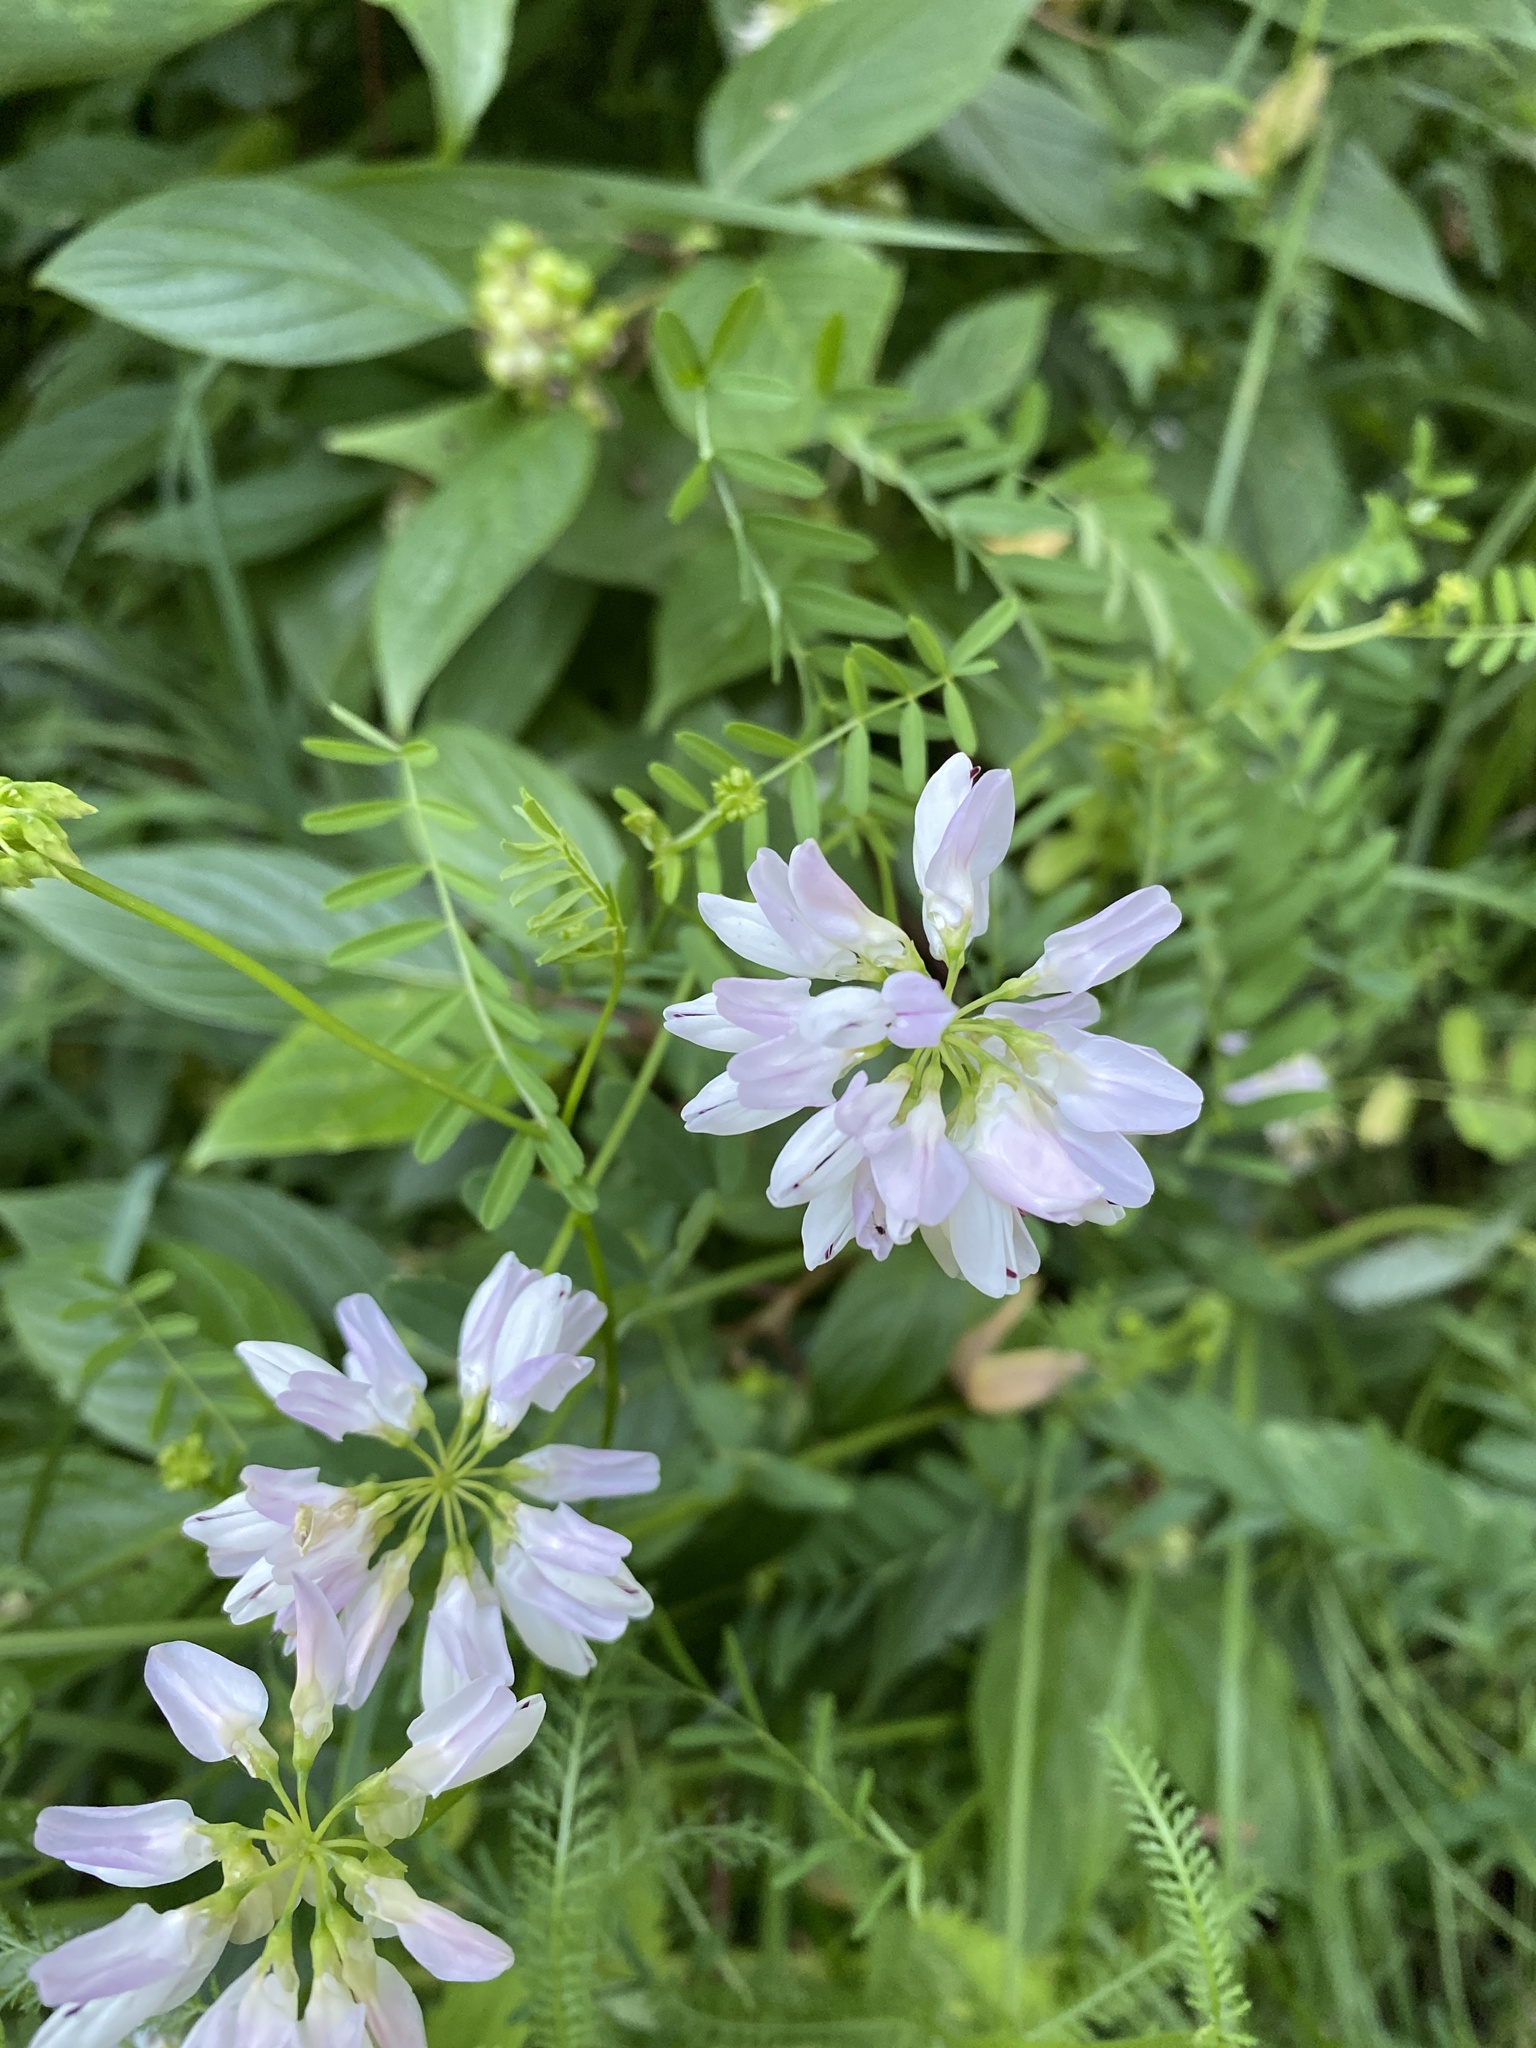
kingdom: Plantae
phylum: Tracheophyta
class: Magnoliopsida
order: Fabales
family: Fabaceae
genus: Coronilla
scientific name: Coronilla varia
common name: Crownvetch
